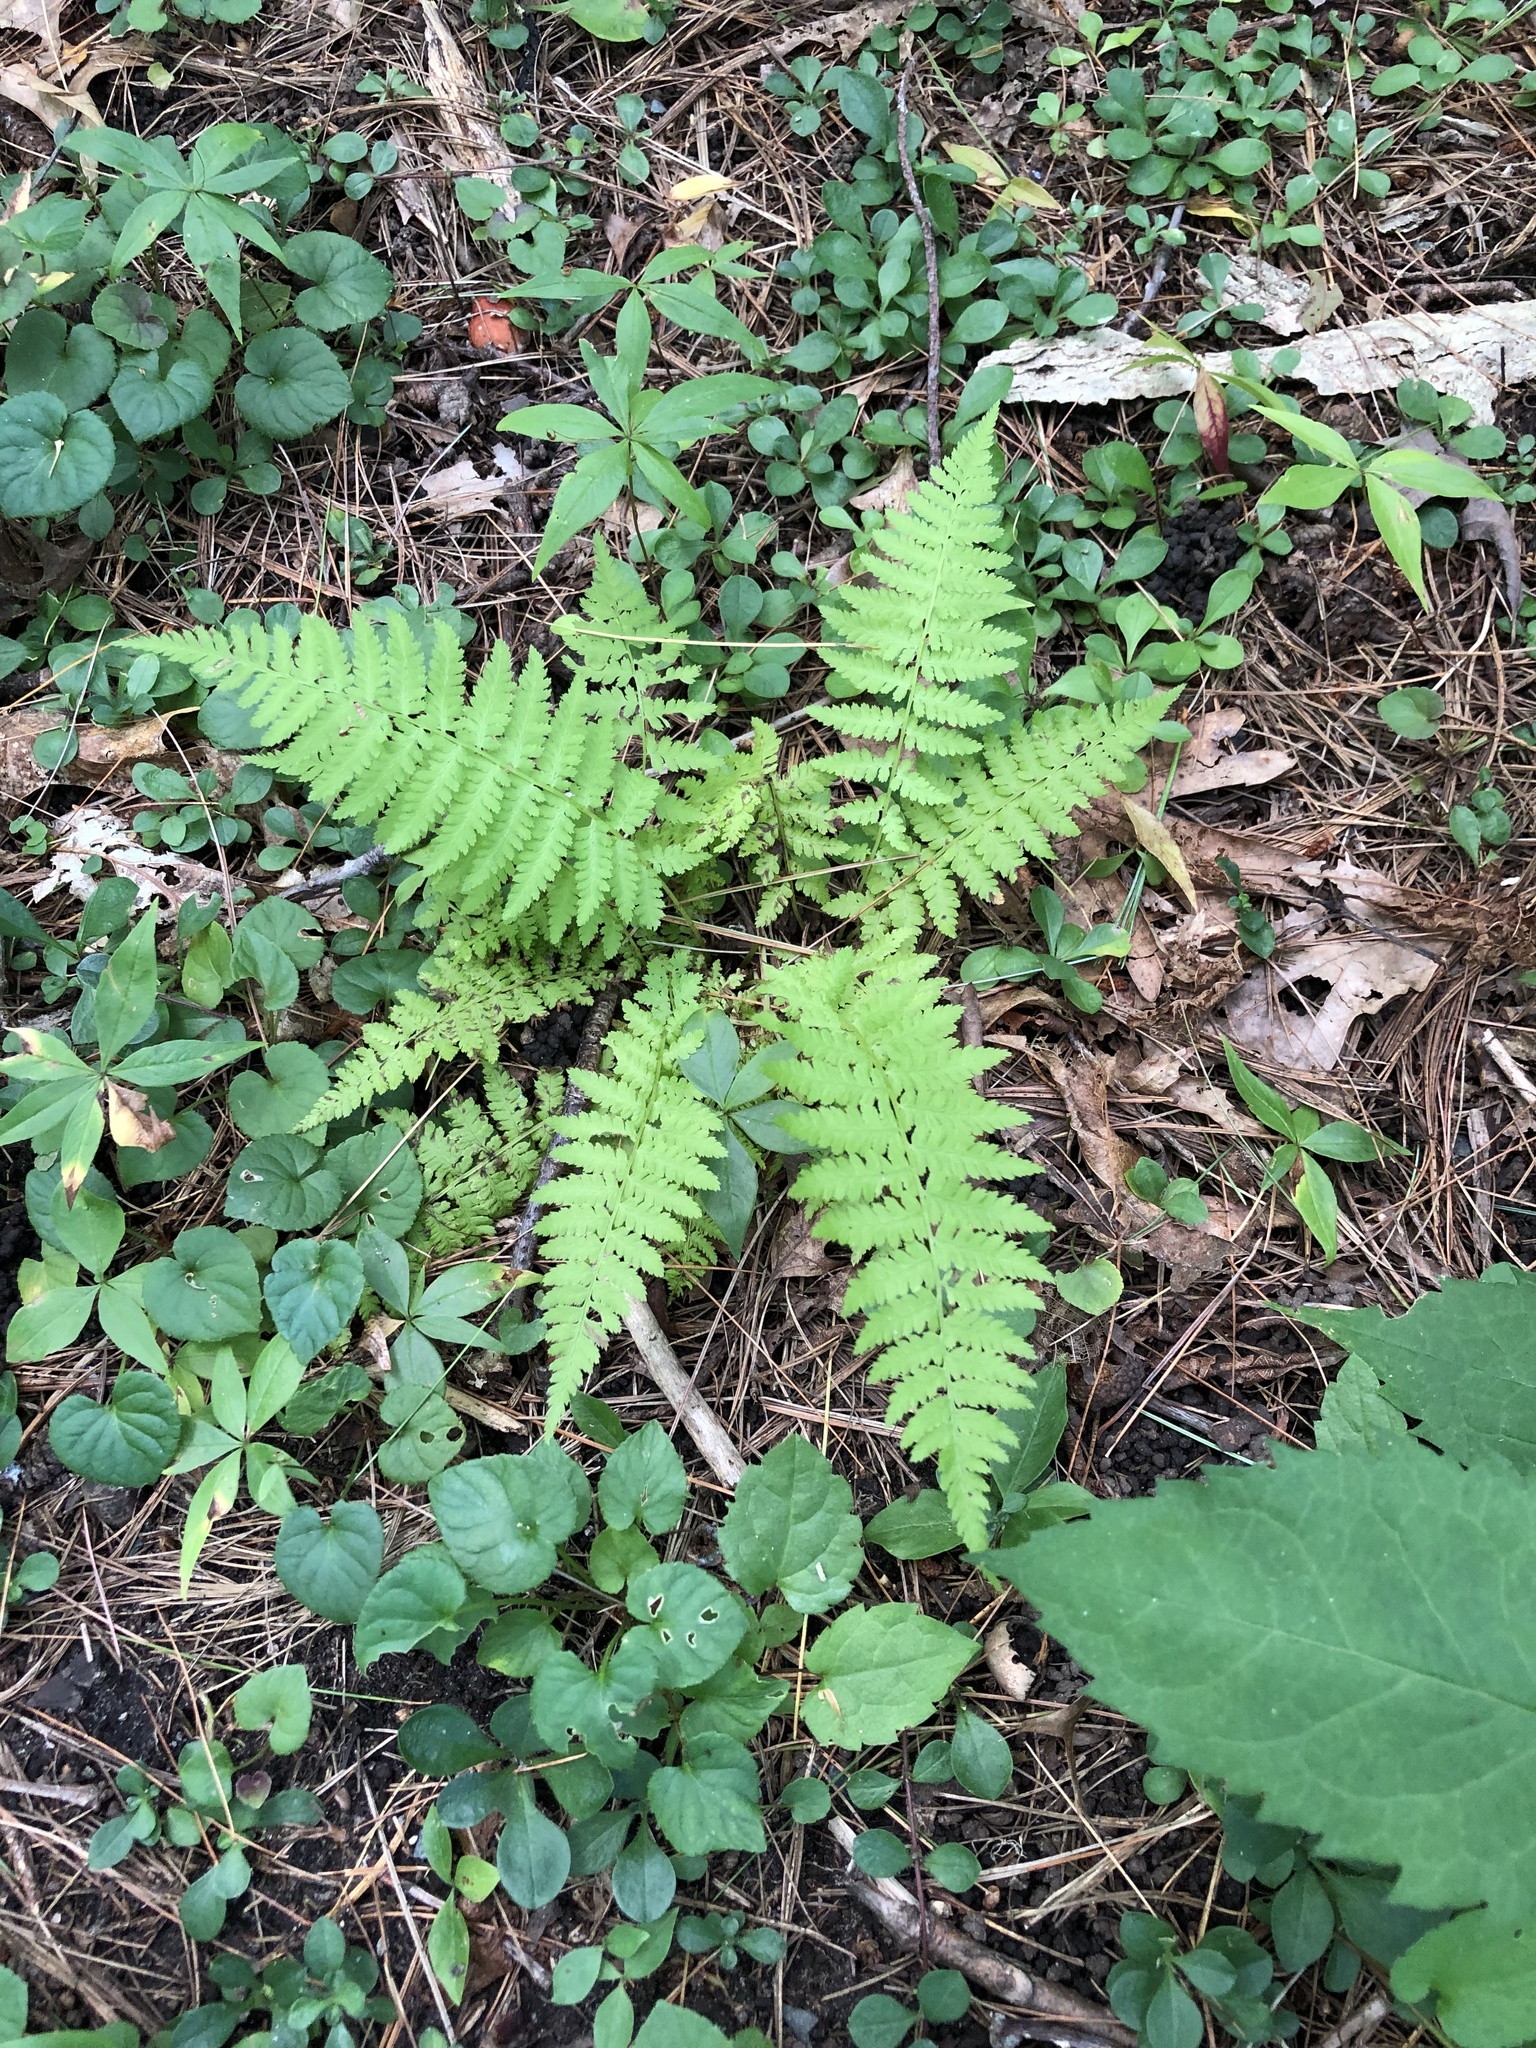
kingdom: Plantae
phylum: Tracheophyta
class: Polypodiopsida
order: Polypodiales
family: Athyriaceae
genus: Athyrium
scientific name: Athyrium angustum
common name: Northern lady fern
